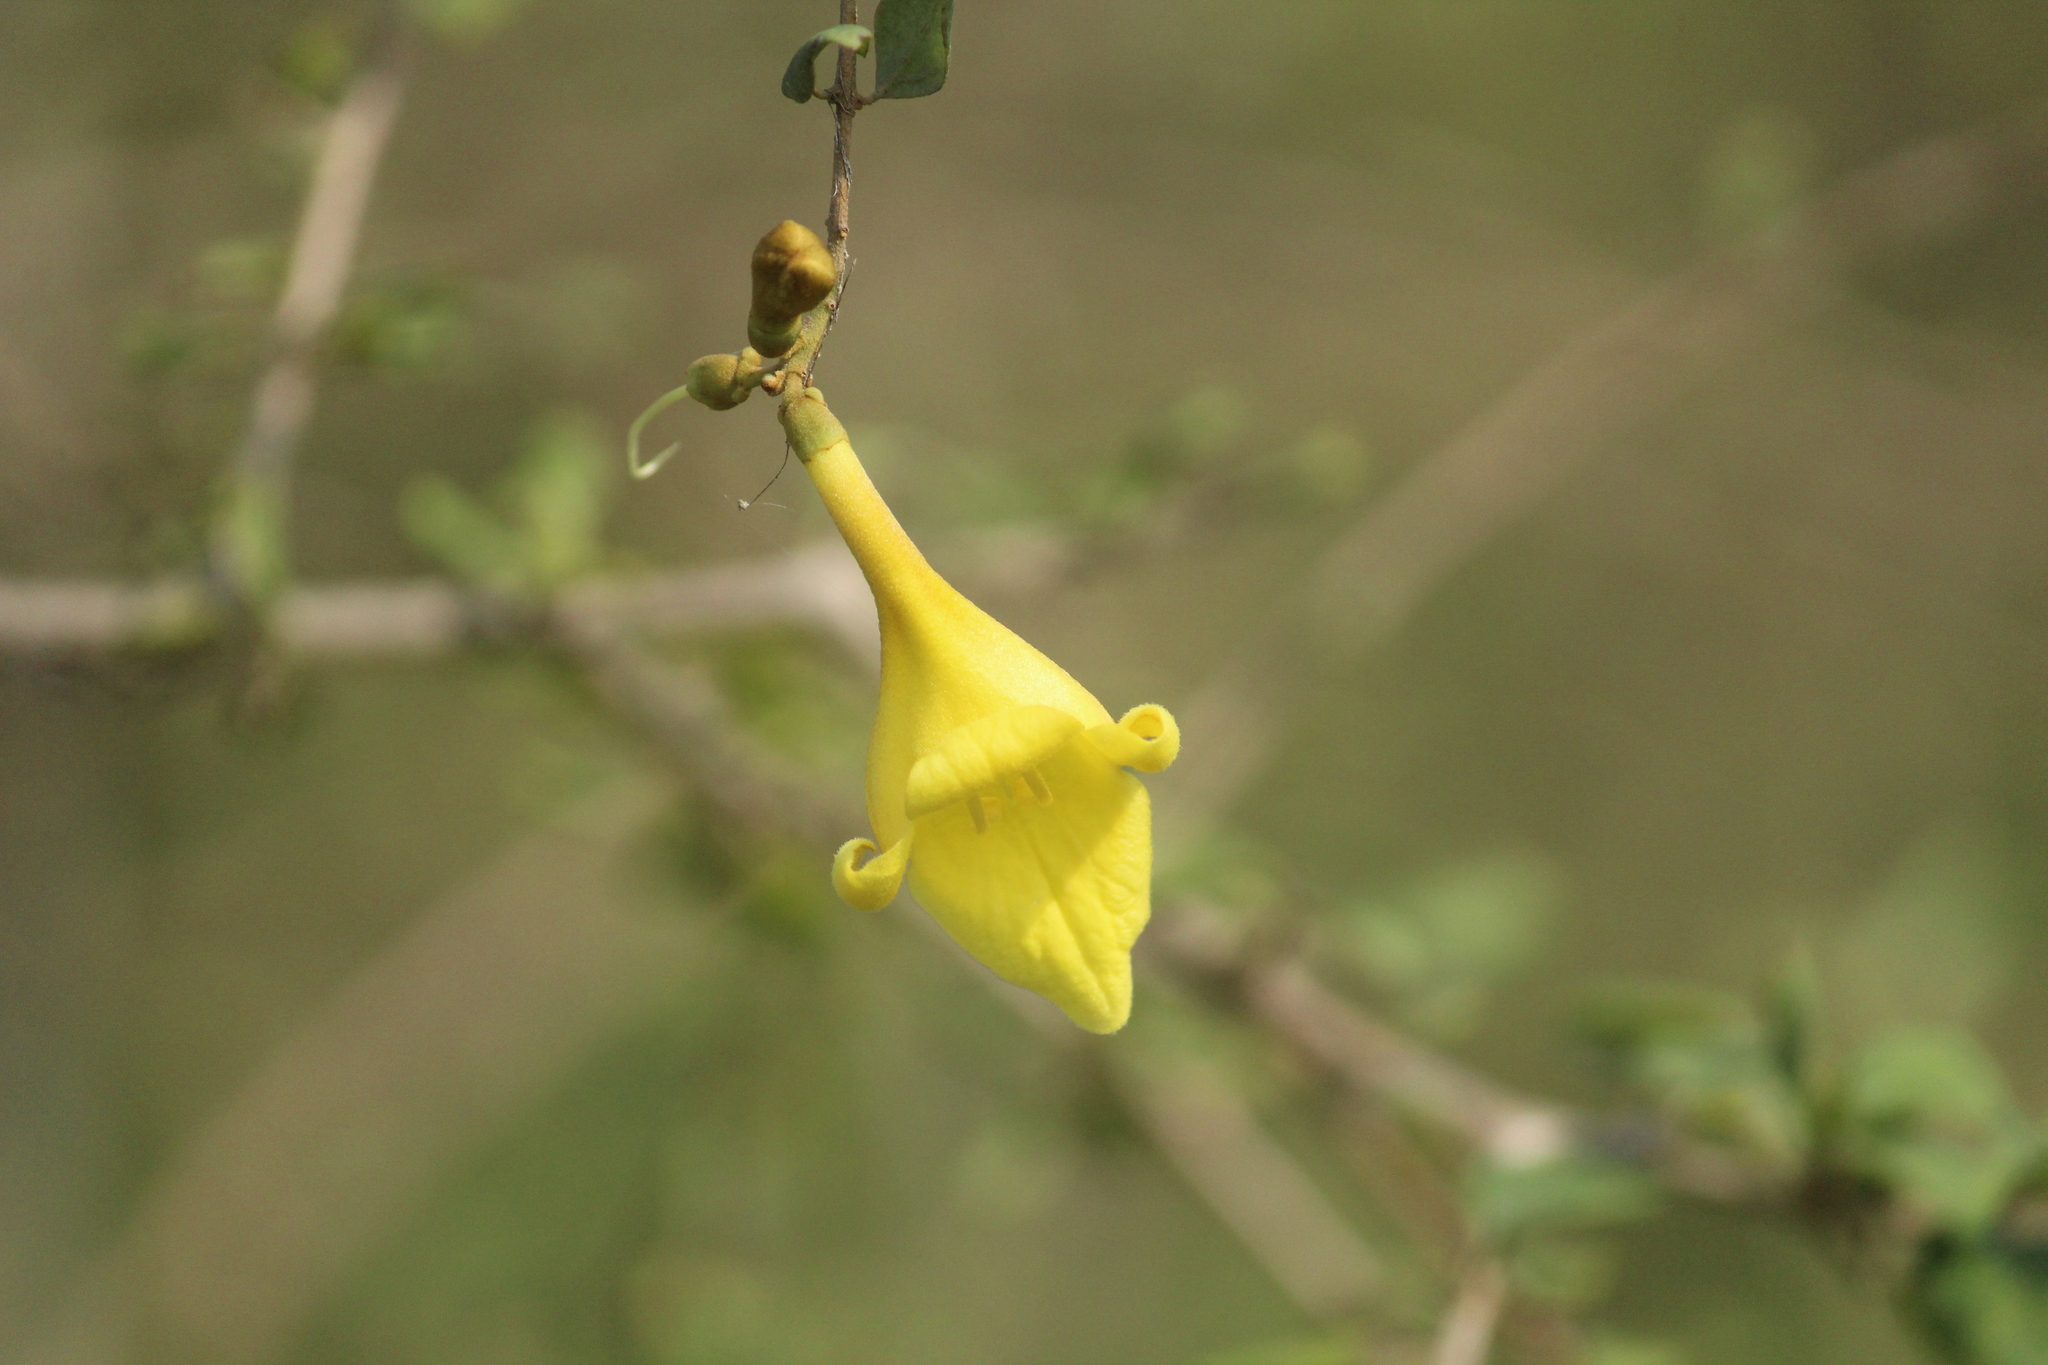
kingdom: Plantae
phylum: Tracheophyta
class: Magnoliopsida
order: Lamiales
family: Lamiaceae
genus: Gmelina
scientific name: Gmelina asiatica
